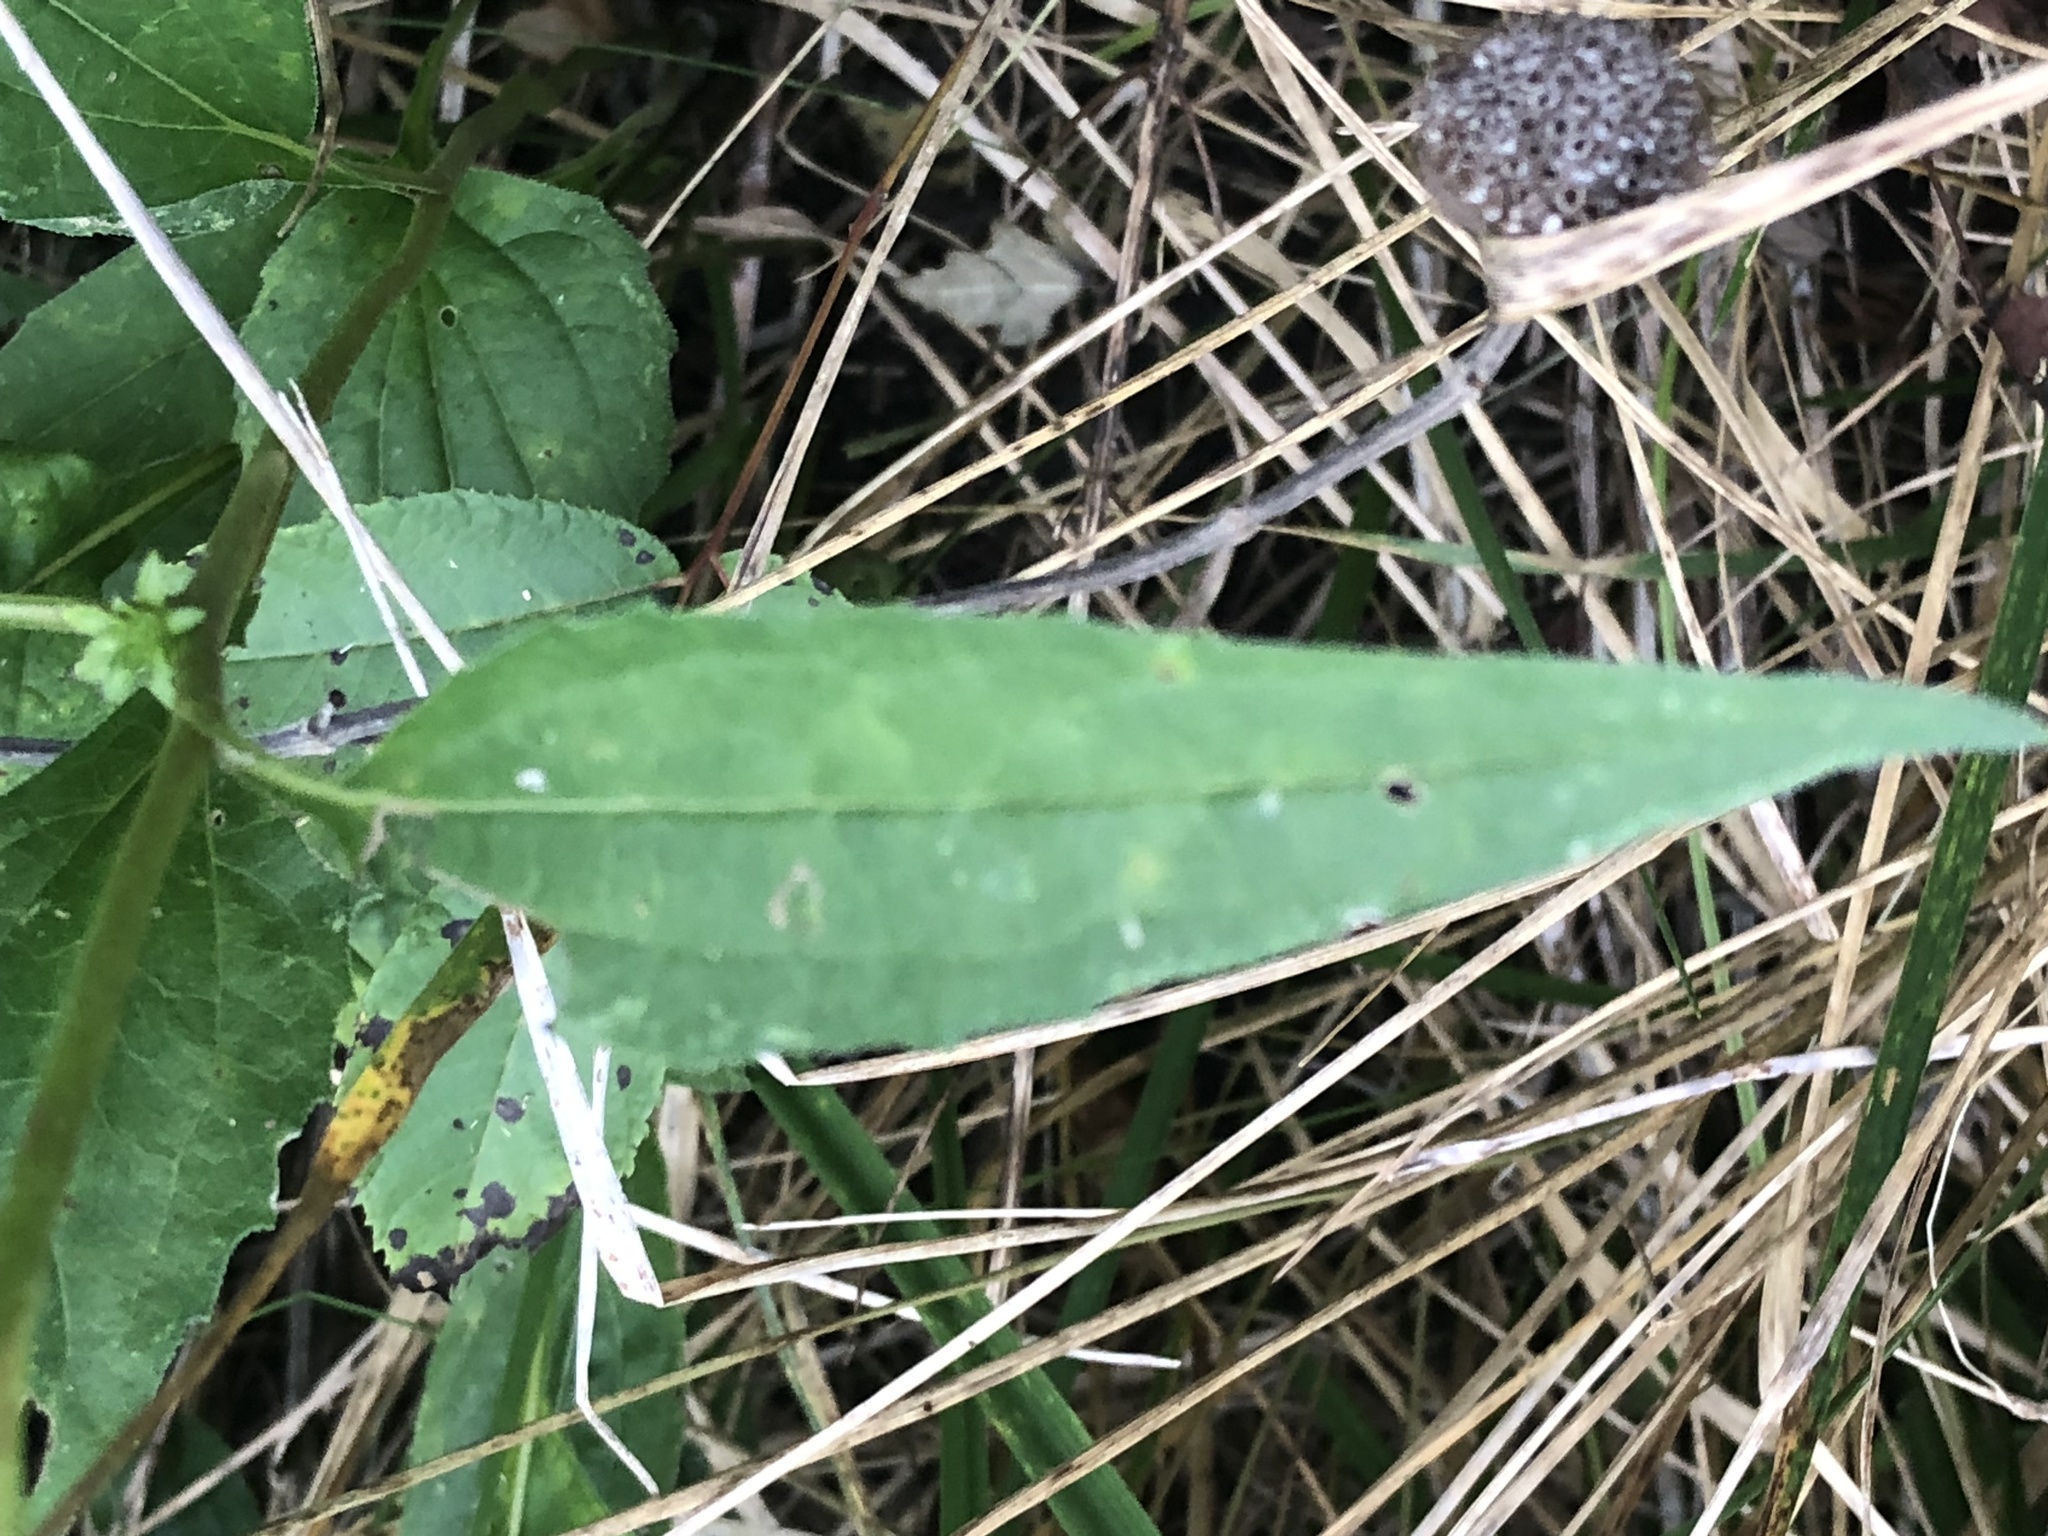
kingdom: Plantae
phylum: Tracheophyta
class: Magnoliopsida
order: Asterales
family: Asteraceae
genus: Echinacea
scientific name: Echinacea purpurea
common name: Broad-leaved purple coneflower
